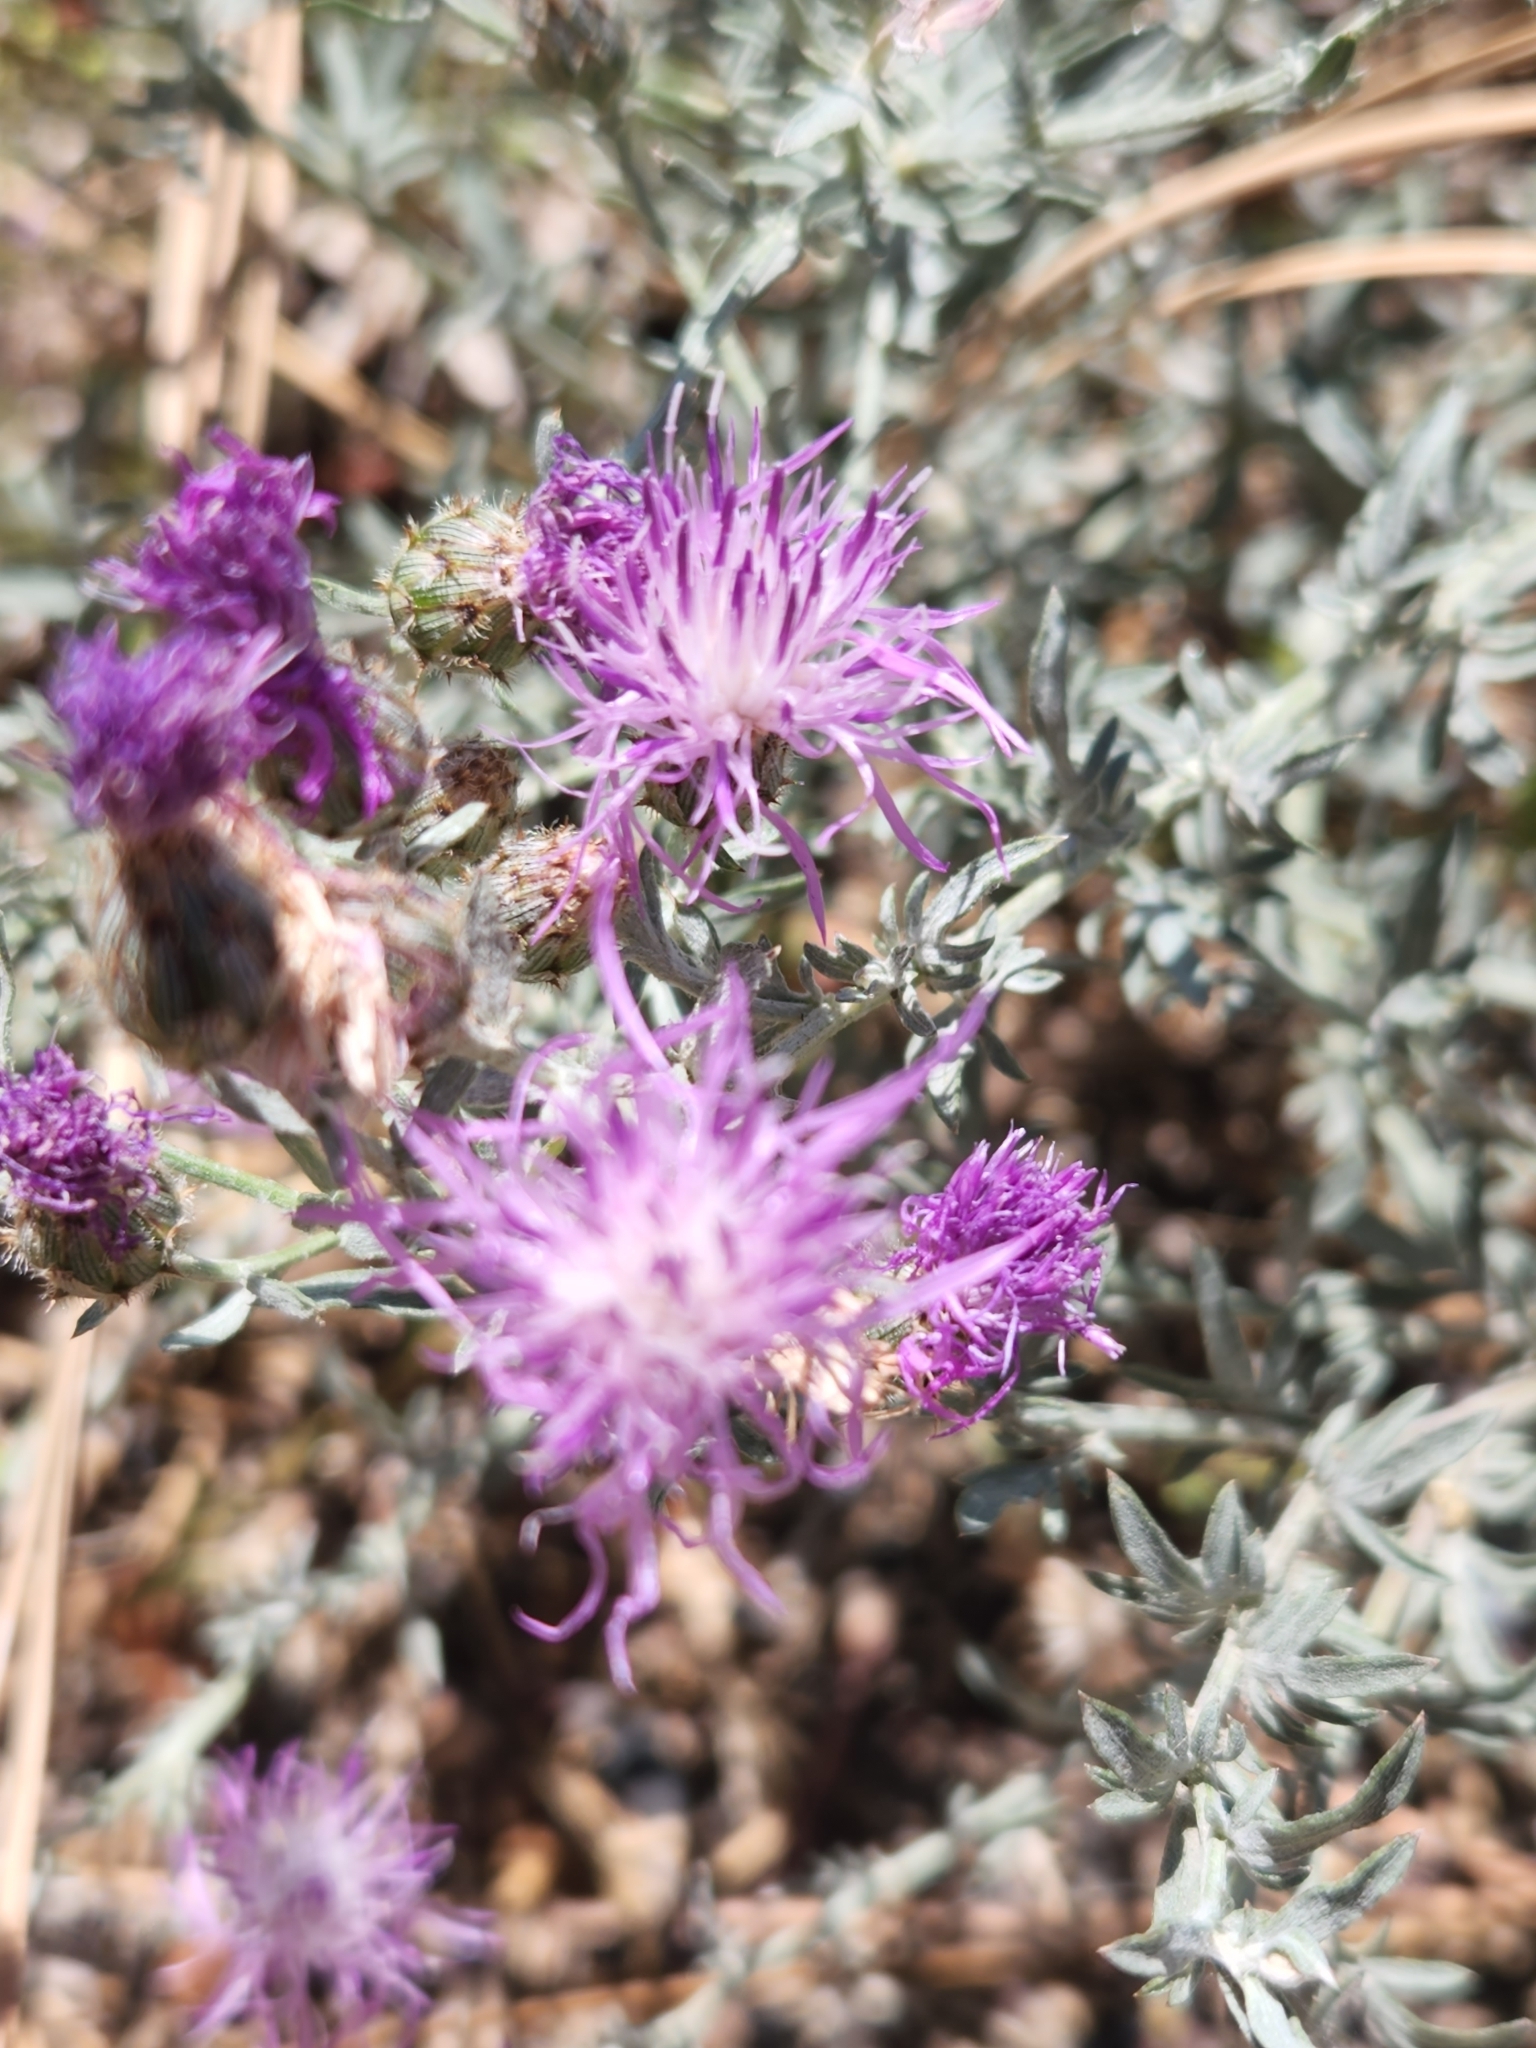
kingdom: Plantae
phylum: Tracheophyta
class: Magnoliopsida
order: Asterales
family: Asteraceae
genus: Centaurea
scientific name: Centaurea stoebe
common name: Spotted knapweed
